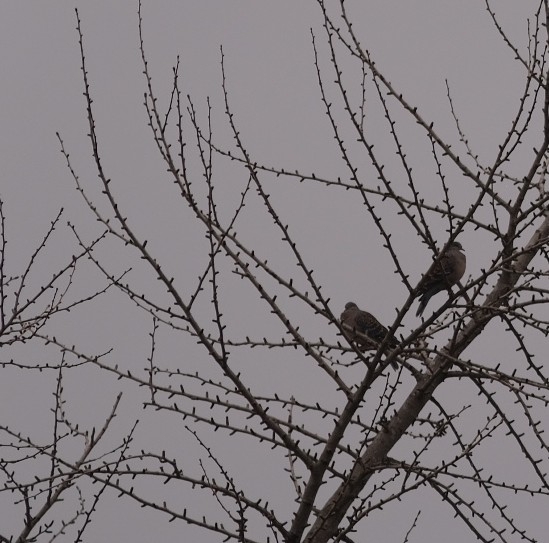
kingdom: Animalia
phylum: Chordata
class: Aves
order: Columbiformes
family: Columbidae
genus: Streptopelia
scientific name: Streptopelia orientalis
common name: Oriental turtle dove
